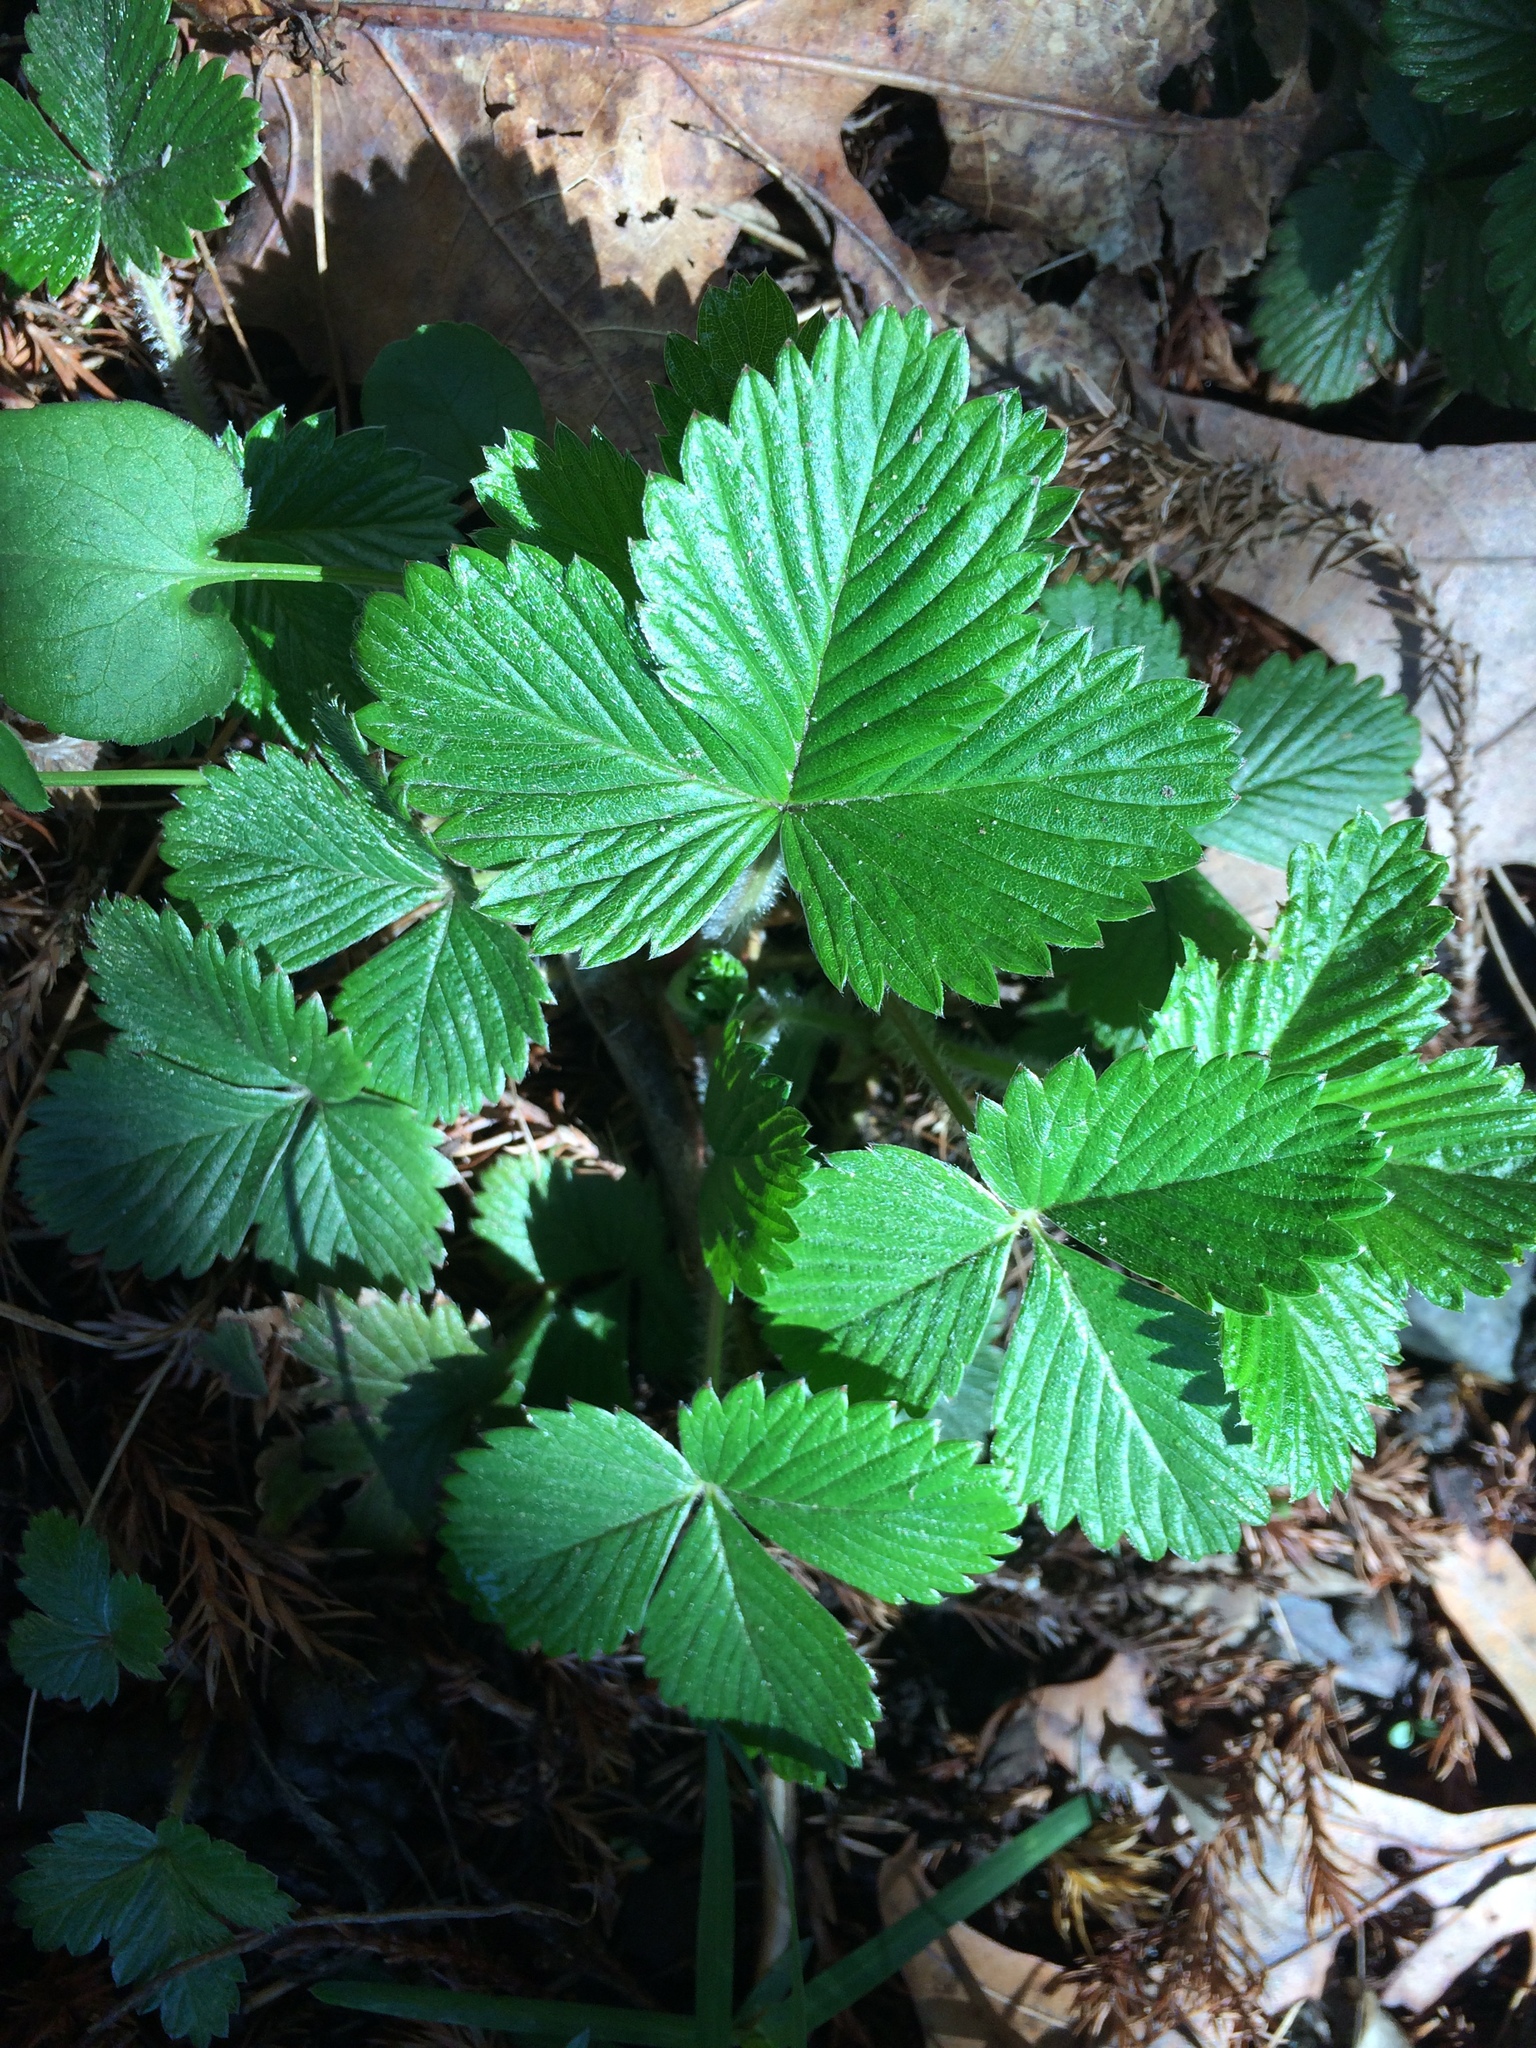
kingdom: Plantae
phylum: Tracheophyta
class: Magnoliopsida
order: Rosales
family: Rosaceae
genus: Fragaria
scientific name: Fragaria vesca
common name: Wild strawberry
